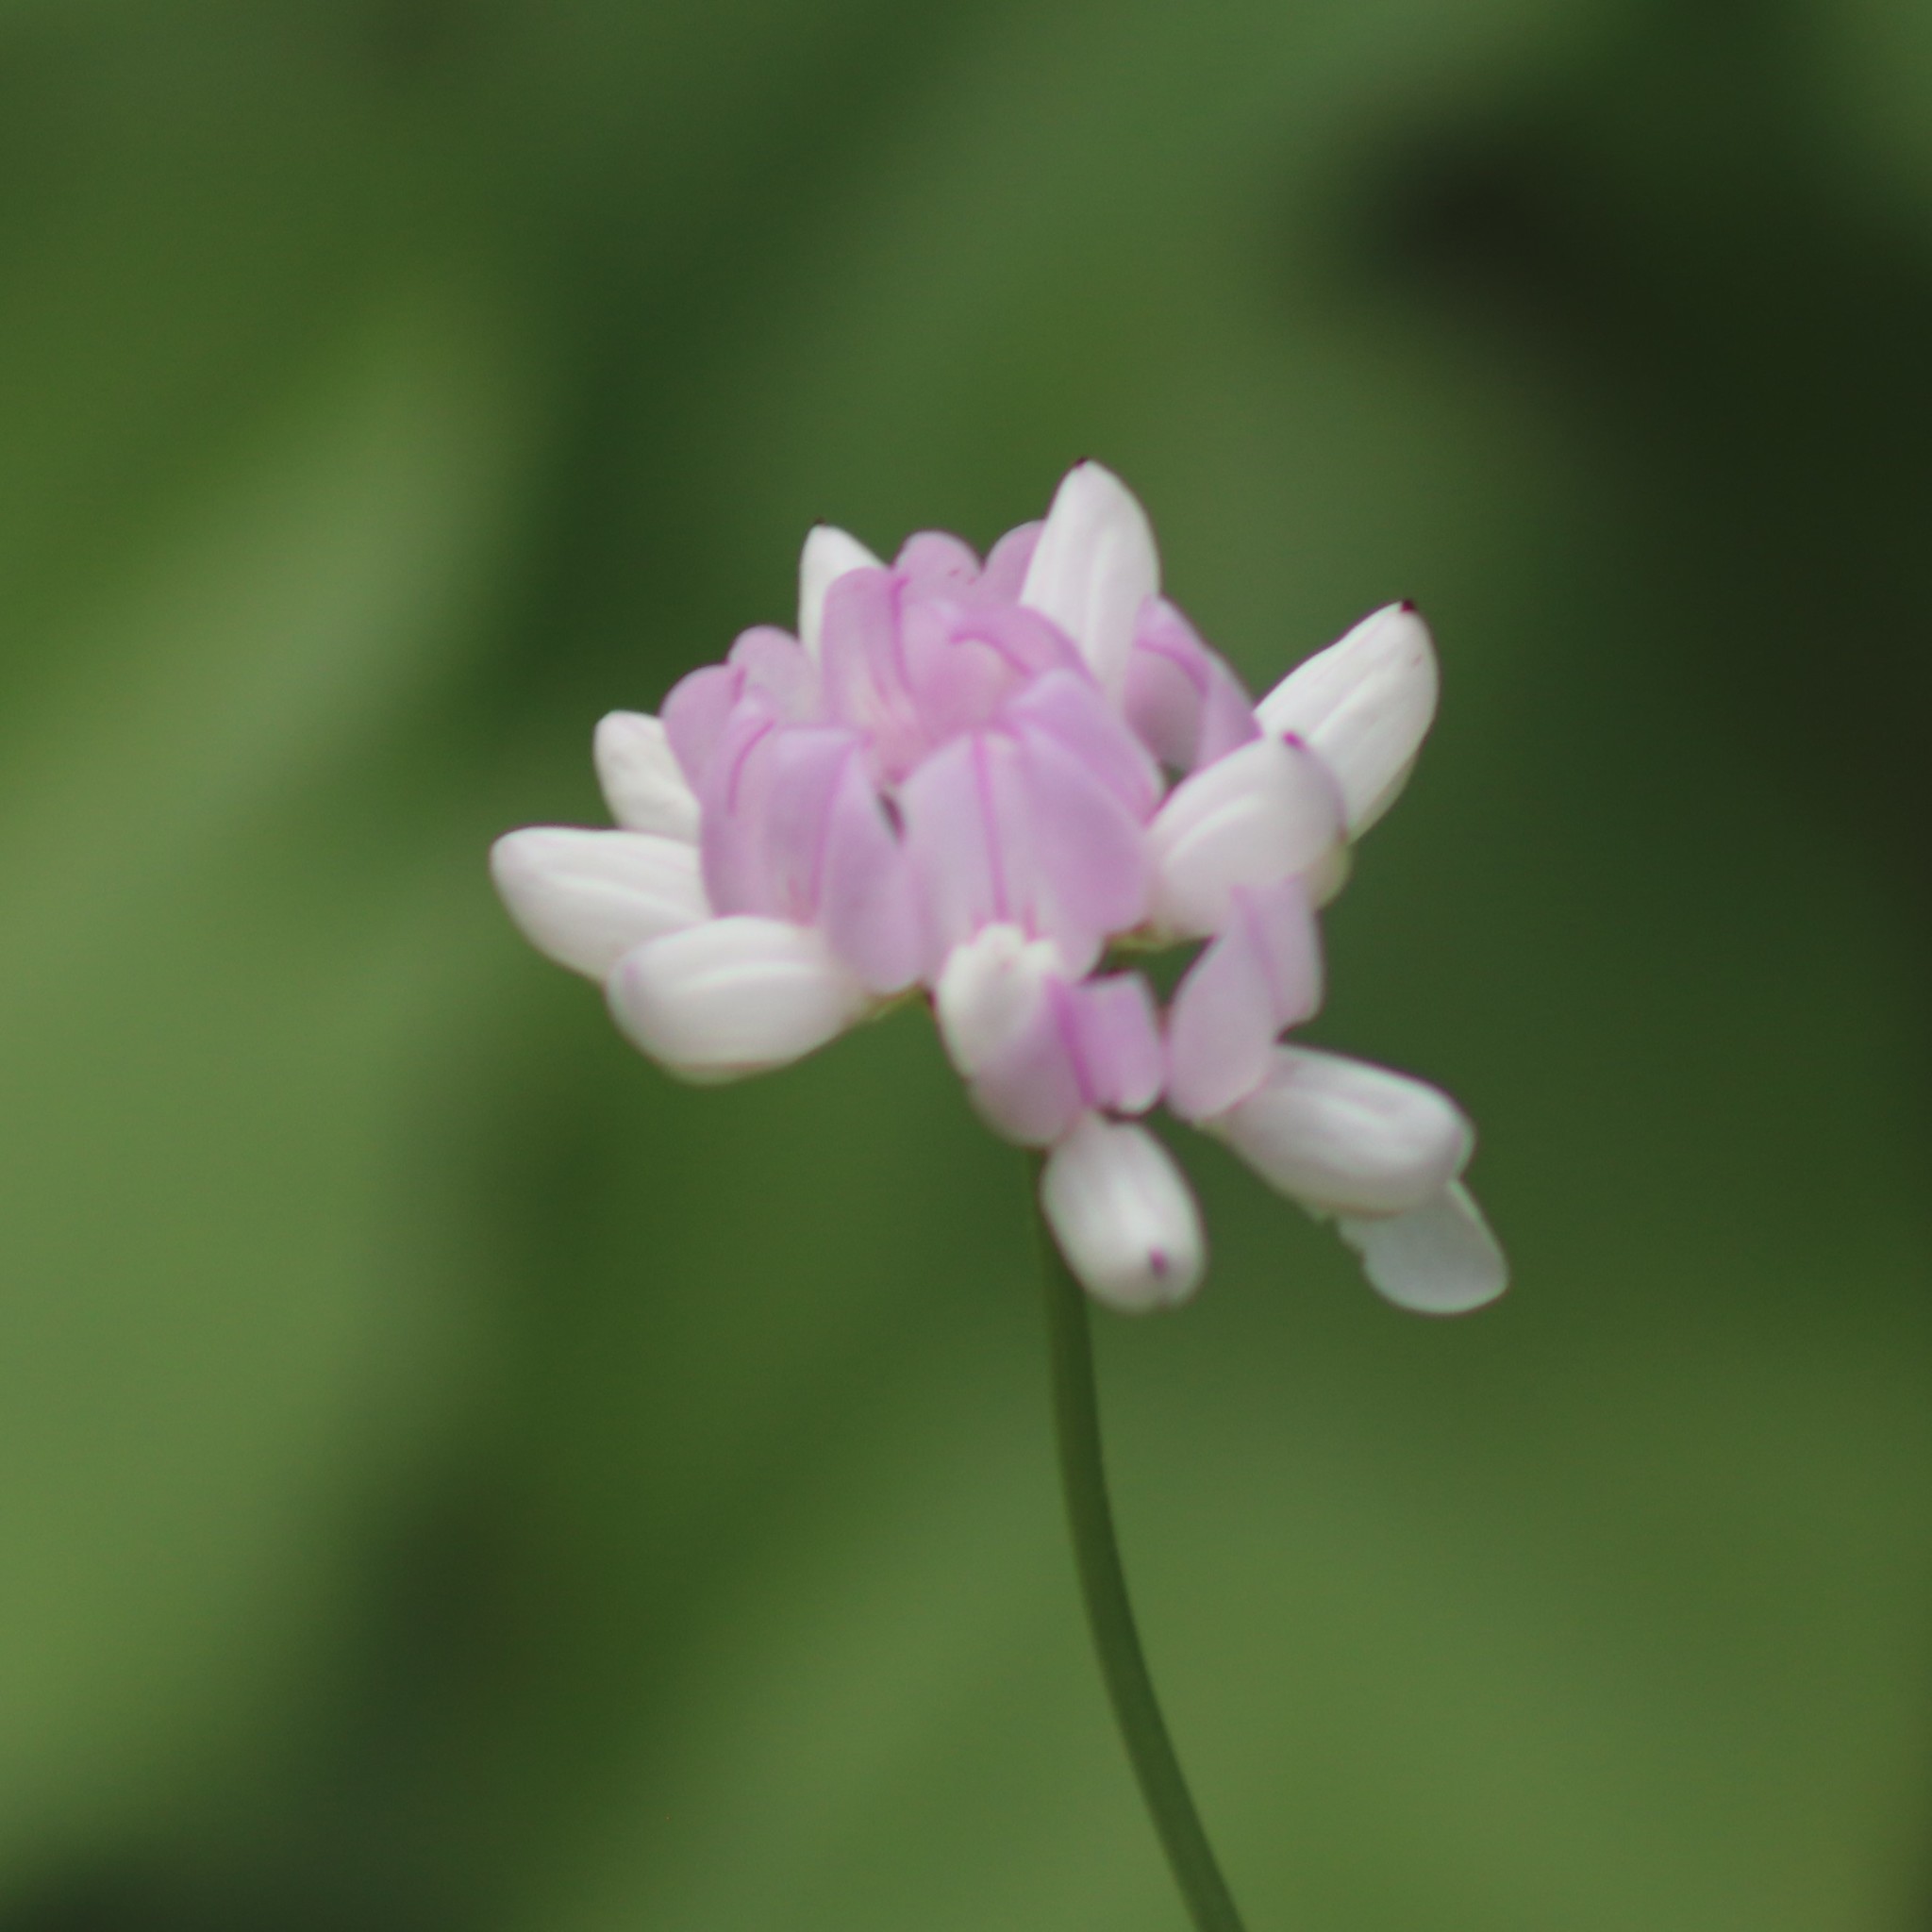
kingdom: Plantae
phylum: Tracheophyta
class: Magnoliopsida
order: Fabales
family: Fabaceae
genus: Coronilla
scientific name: Coronilla varia
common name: Crownvetch
